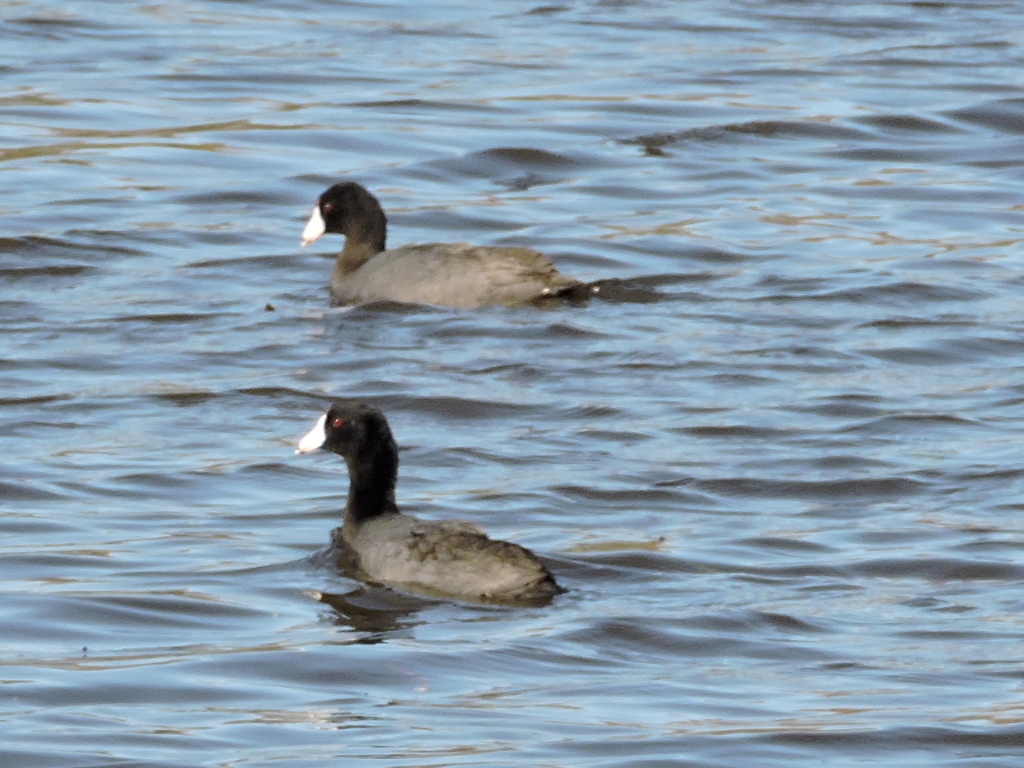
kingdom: Animalia
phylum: Chordata
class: Aves
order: Gruiformes
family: Rallidae
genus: Fulica
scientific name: Fulica americana
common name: American coot
